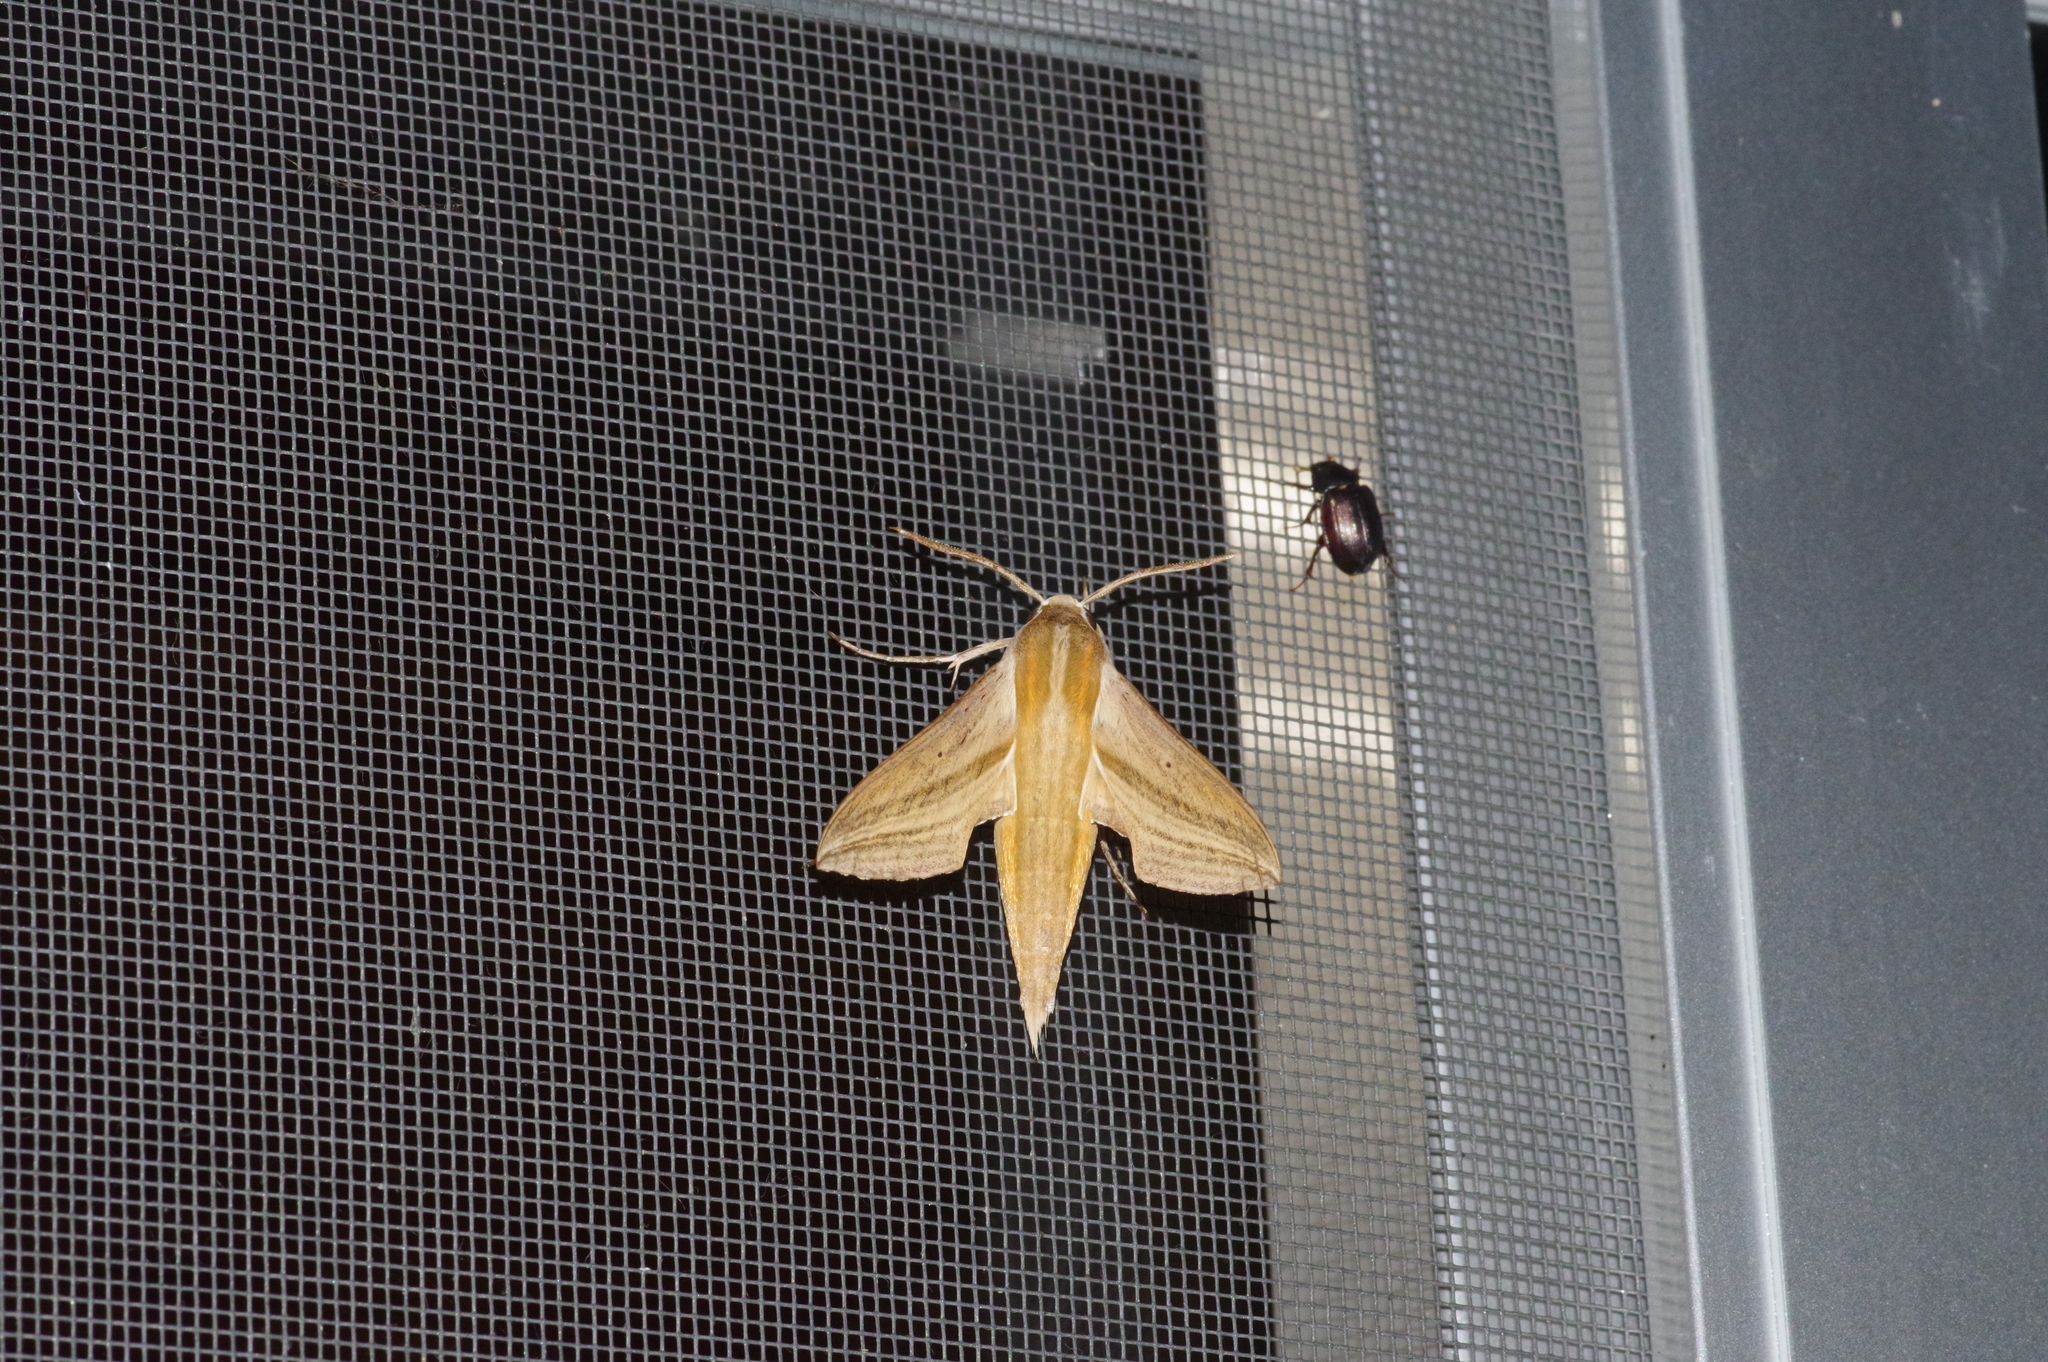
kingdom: Animalia
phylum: Arthropoda
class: Insecta
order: Lepidoptera
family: Sphingidae
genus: Theretra
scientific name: Theretra japonica
